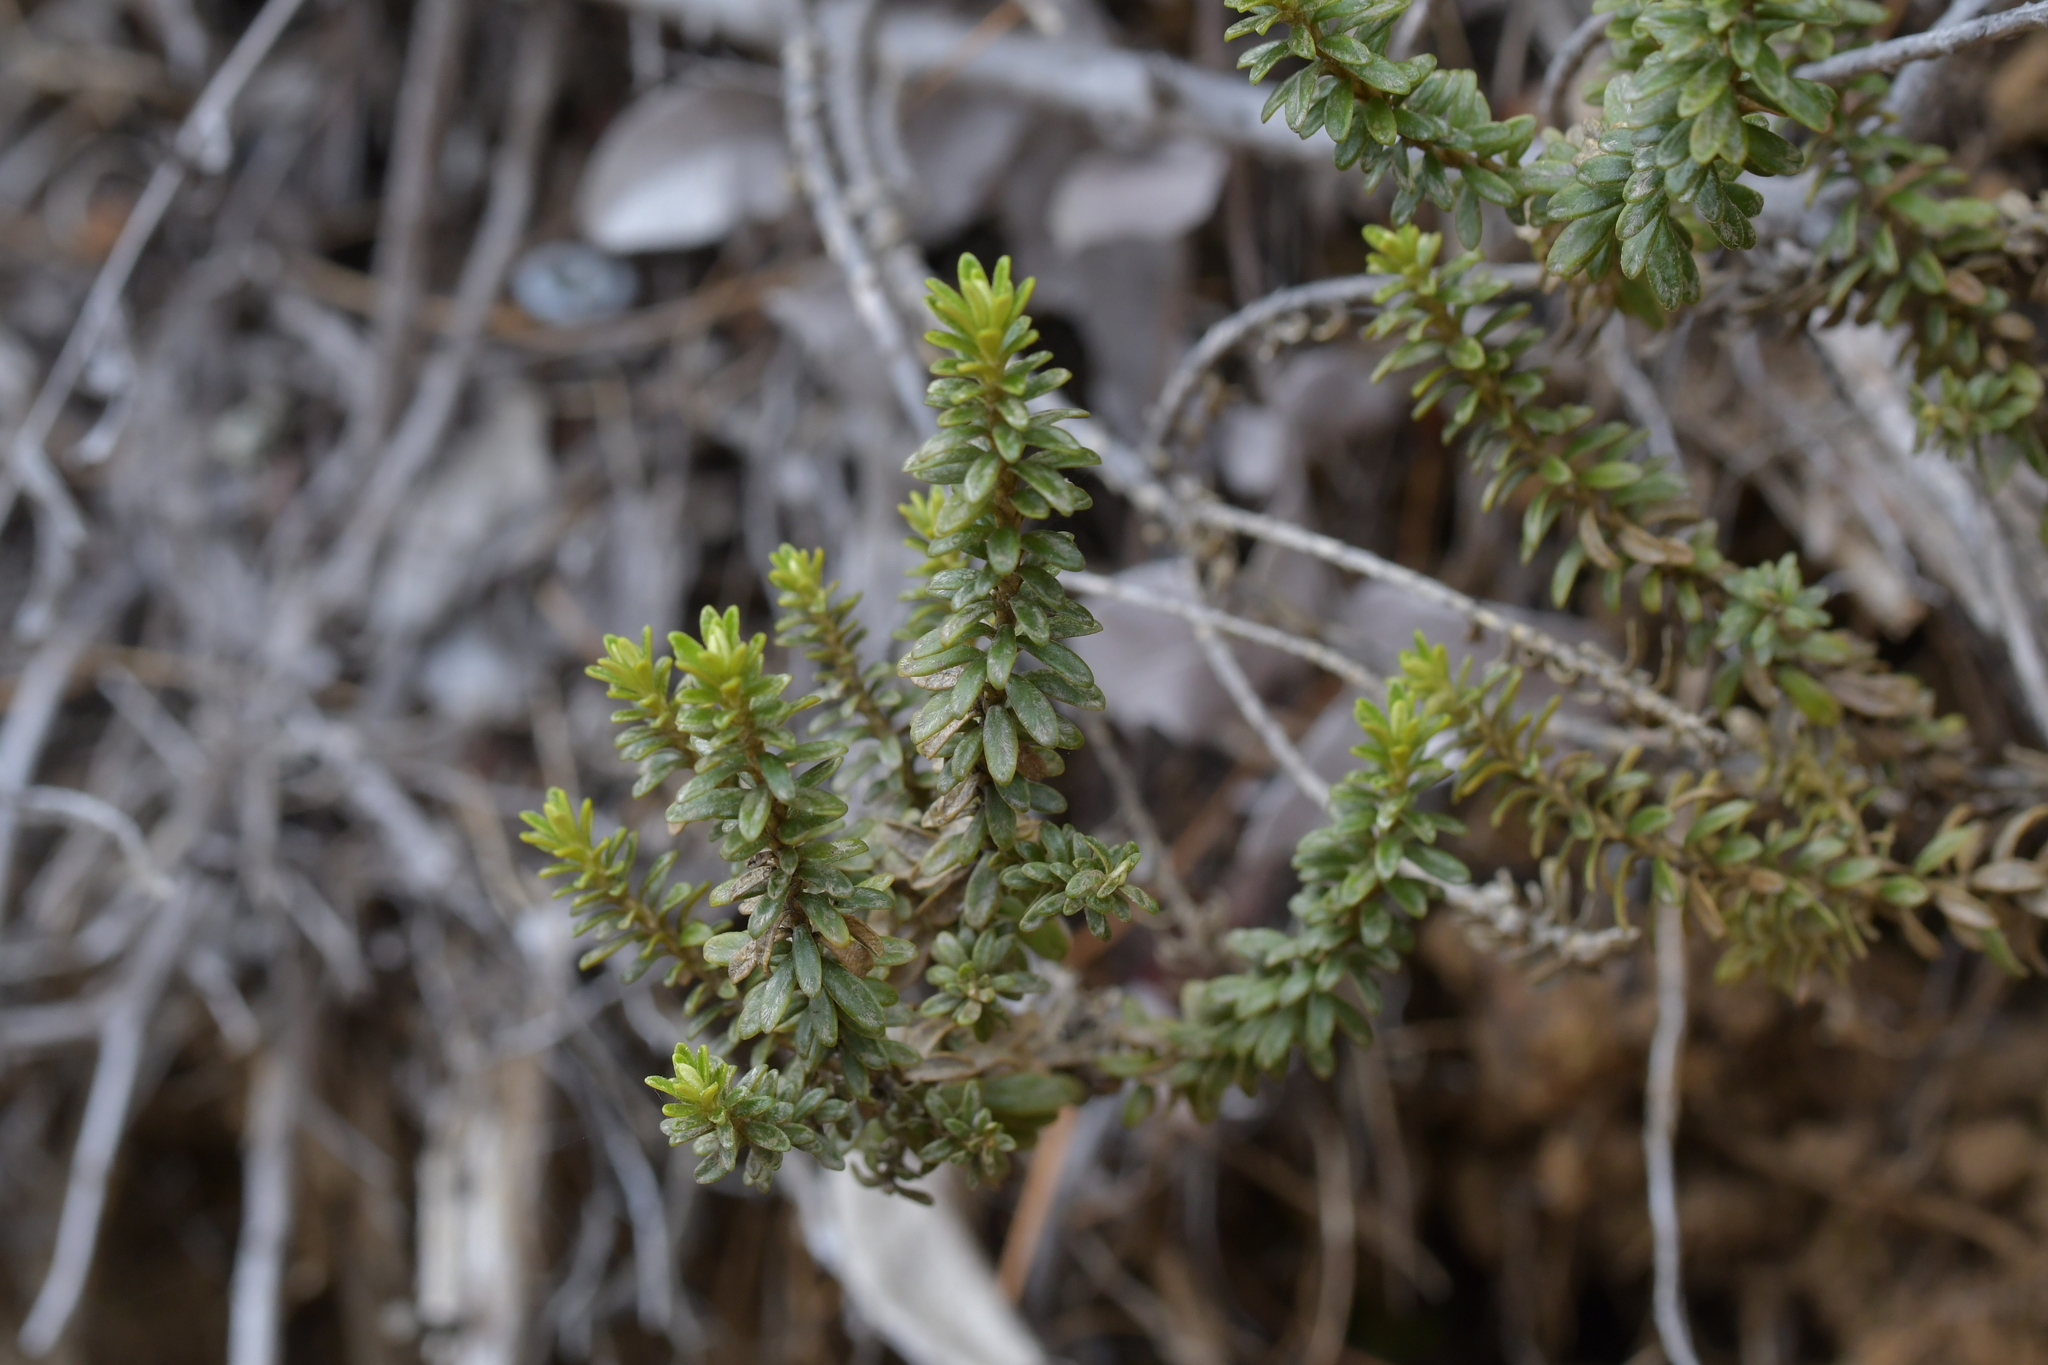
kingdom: Plantae
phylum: Tracheophyta
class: Magnoliopsida
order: Asterales
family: Asteraceae
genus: Ozothamnus
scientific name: Ozothamnus leptophyllus
